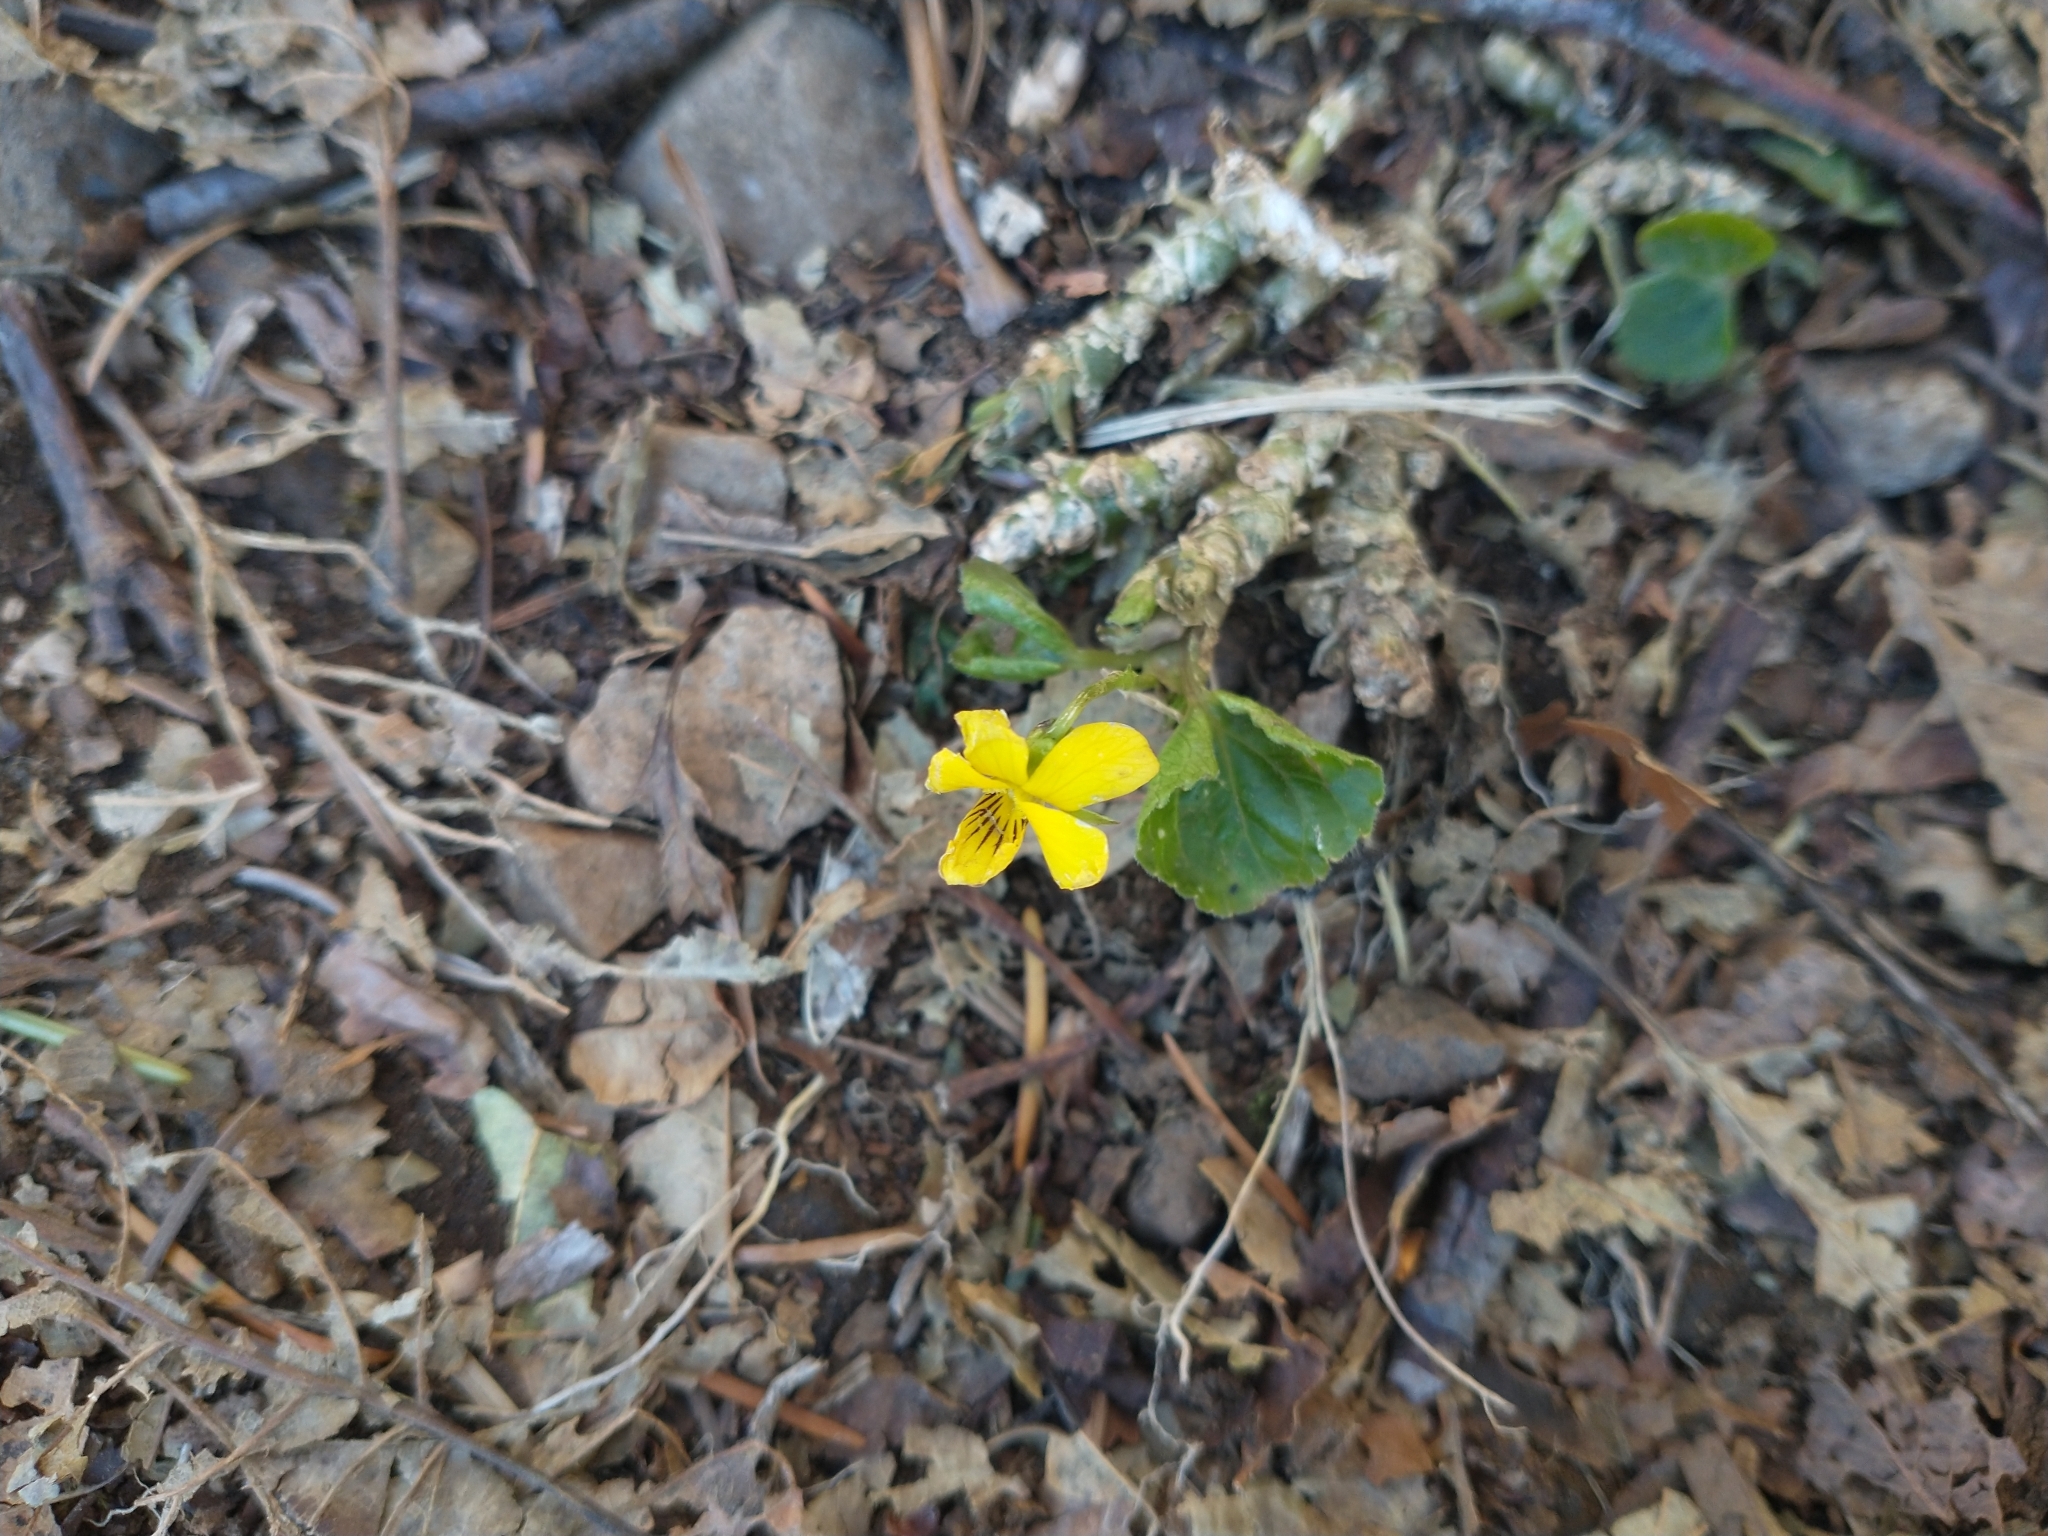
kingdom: Plantae
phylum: Tracheophyta
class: Magnoliopsida
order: Malpighiales
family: Violaceae
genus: Viola
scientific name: Viola glabella
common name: Stream violet
